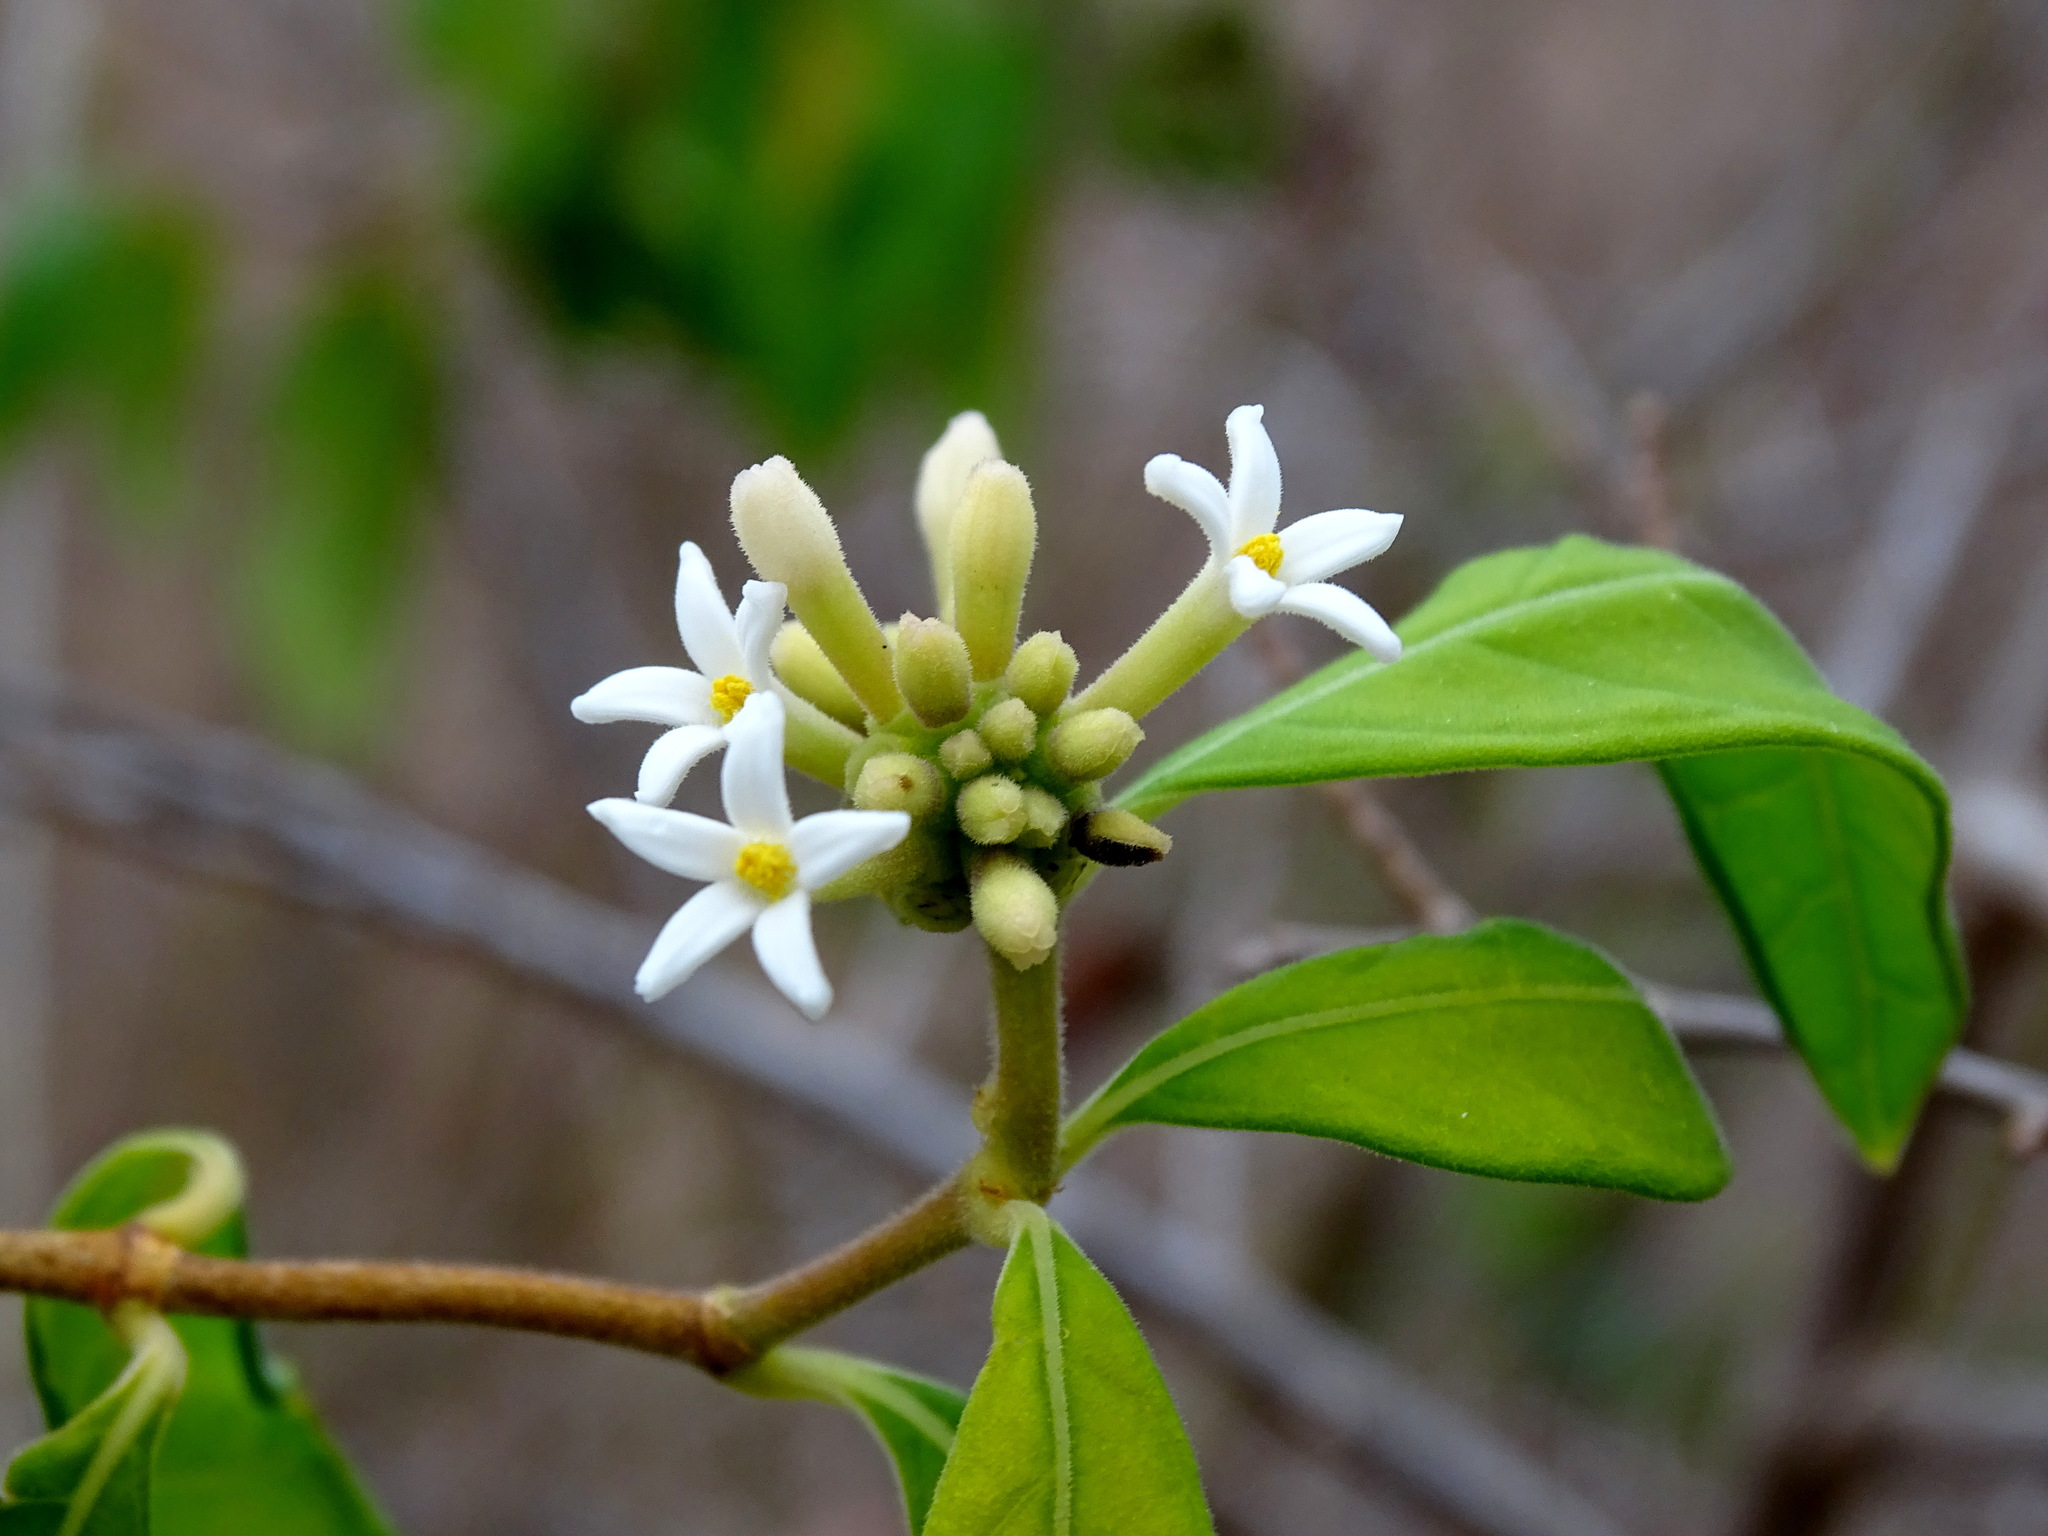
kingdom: Plantae
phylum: Tracheophyta
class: Magnoliopsida
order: Gentianales
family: Rubiaceae
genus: Morinda
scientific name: Morinda royoc
